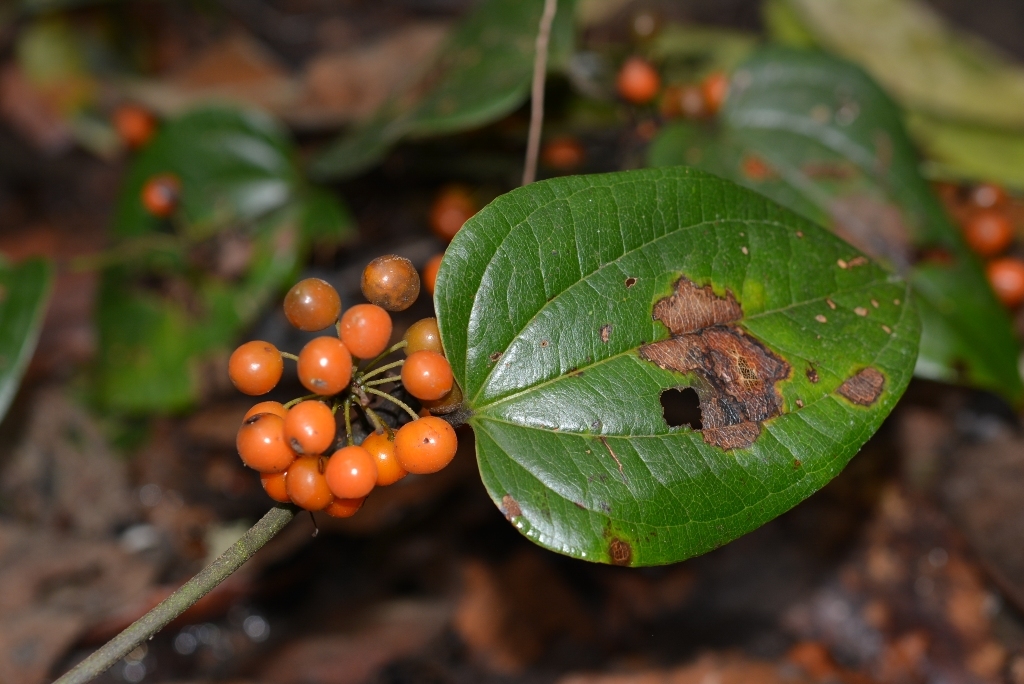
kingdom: Plantae
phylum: Tracheophyta
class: Liliopsida
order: Liliales
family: Smilacaceae
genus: Smilax
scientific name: Smilax subpubescens
